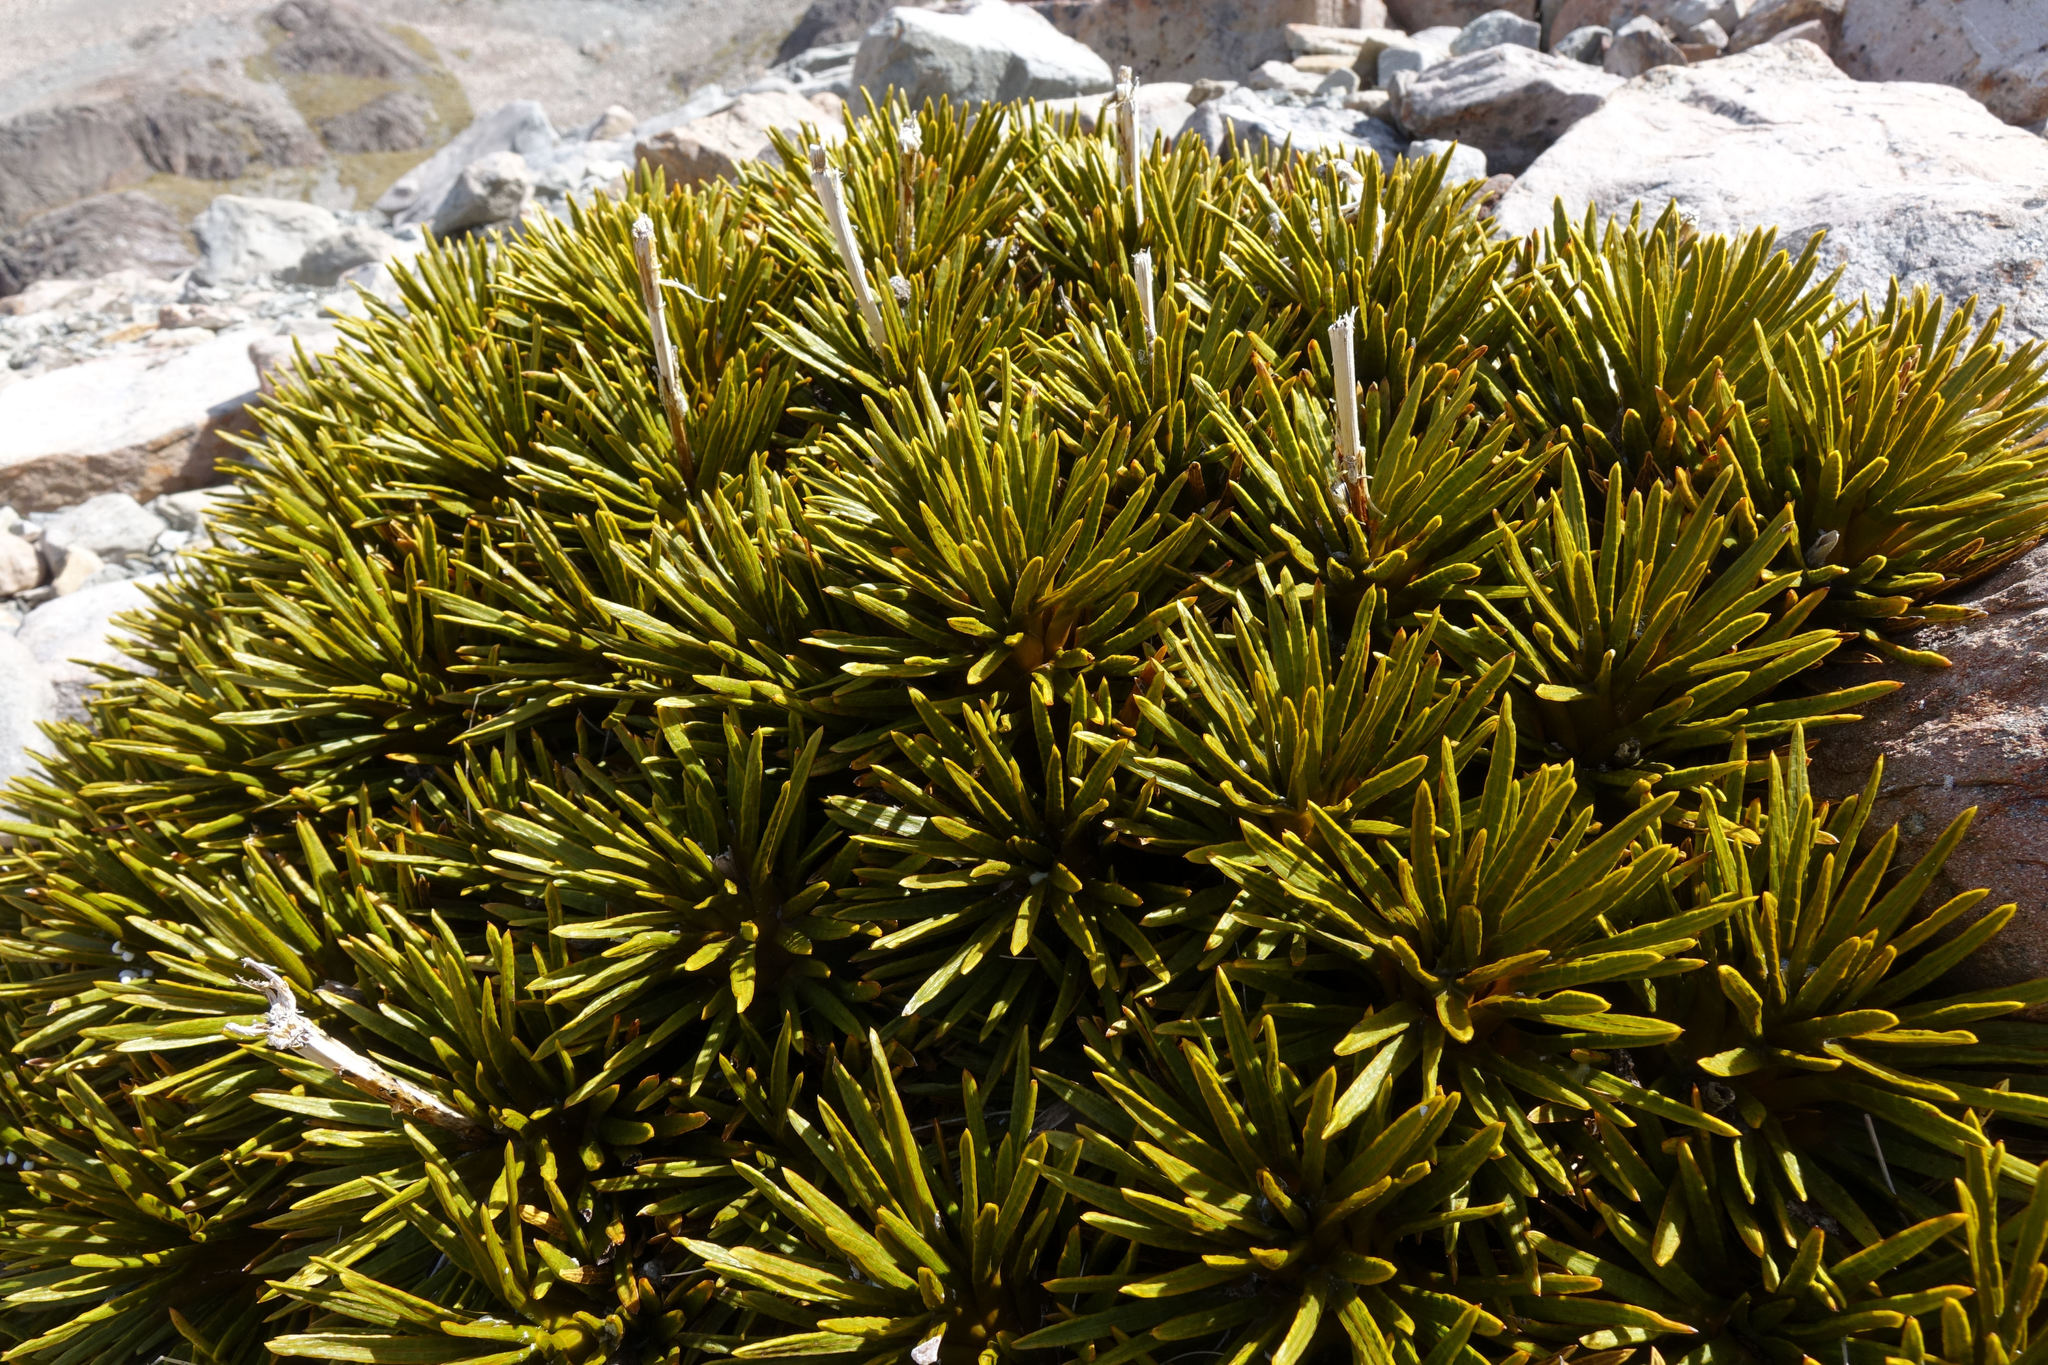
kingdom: Plantae
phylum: Tracheophyta
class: Magnoliopsida
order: Apiales
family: Apiaceae
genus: Aciphylla
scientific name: Aciphylla dobsonii
